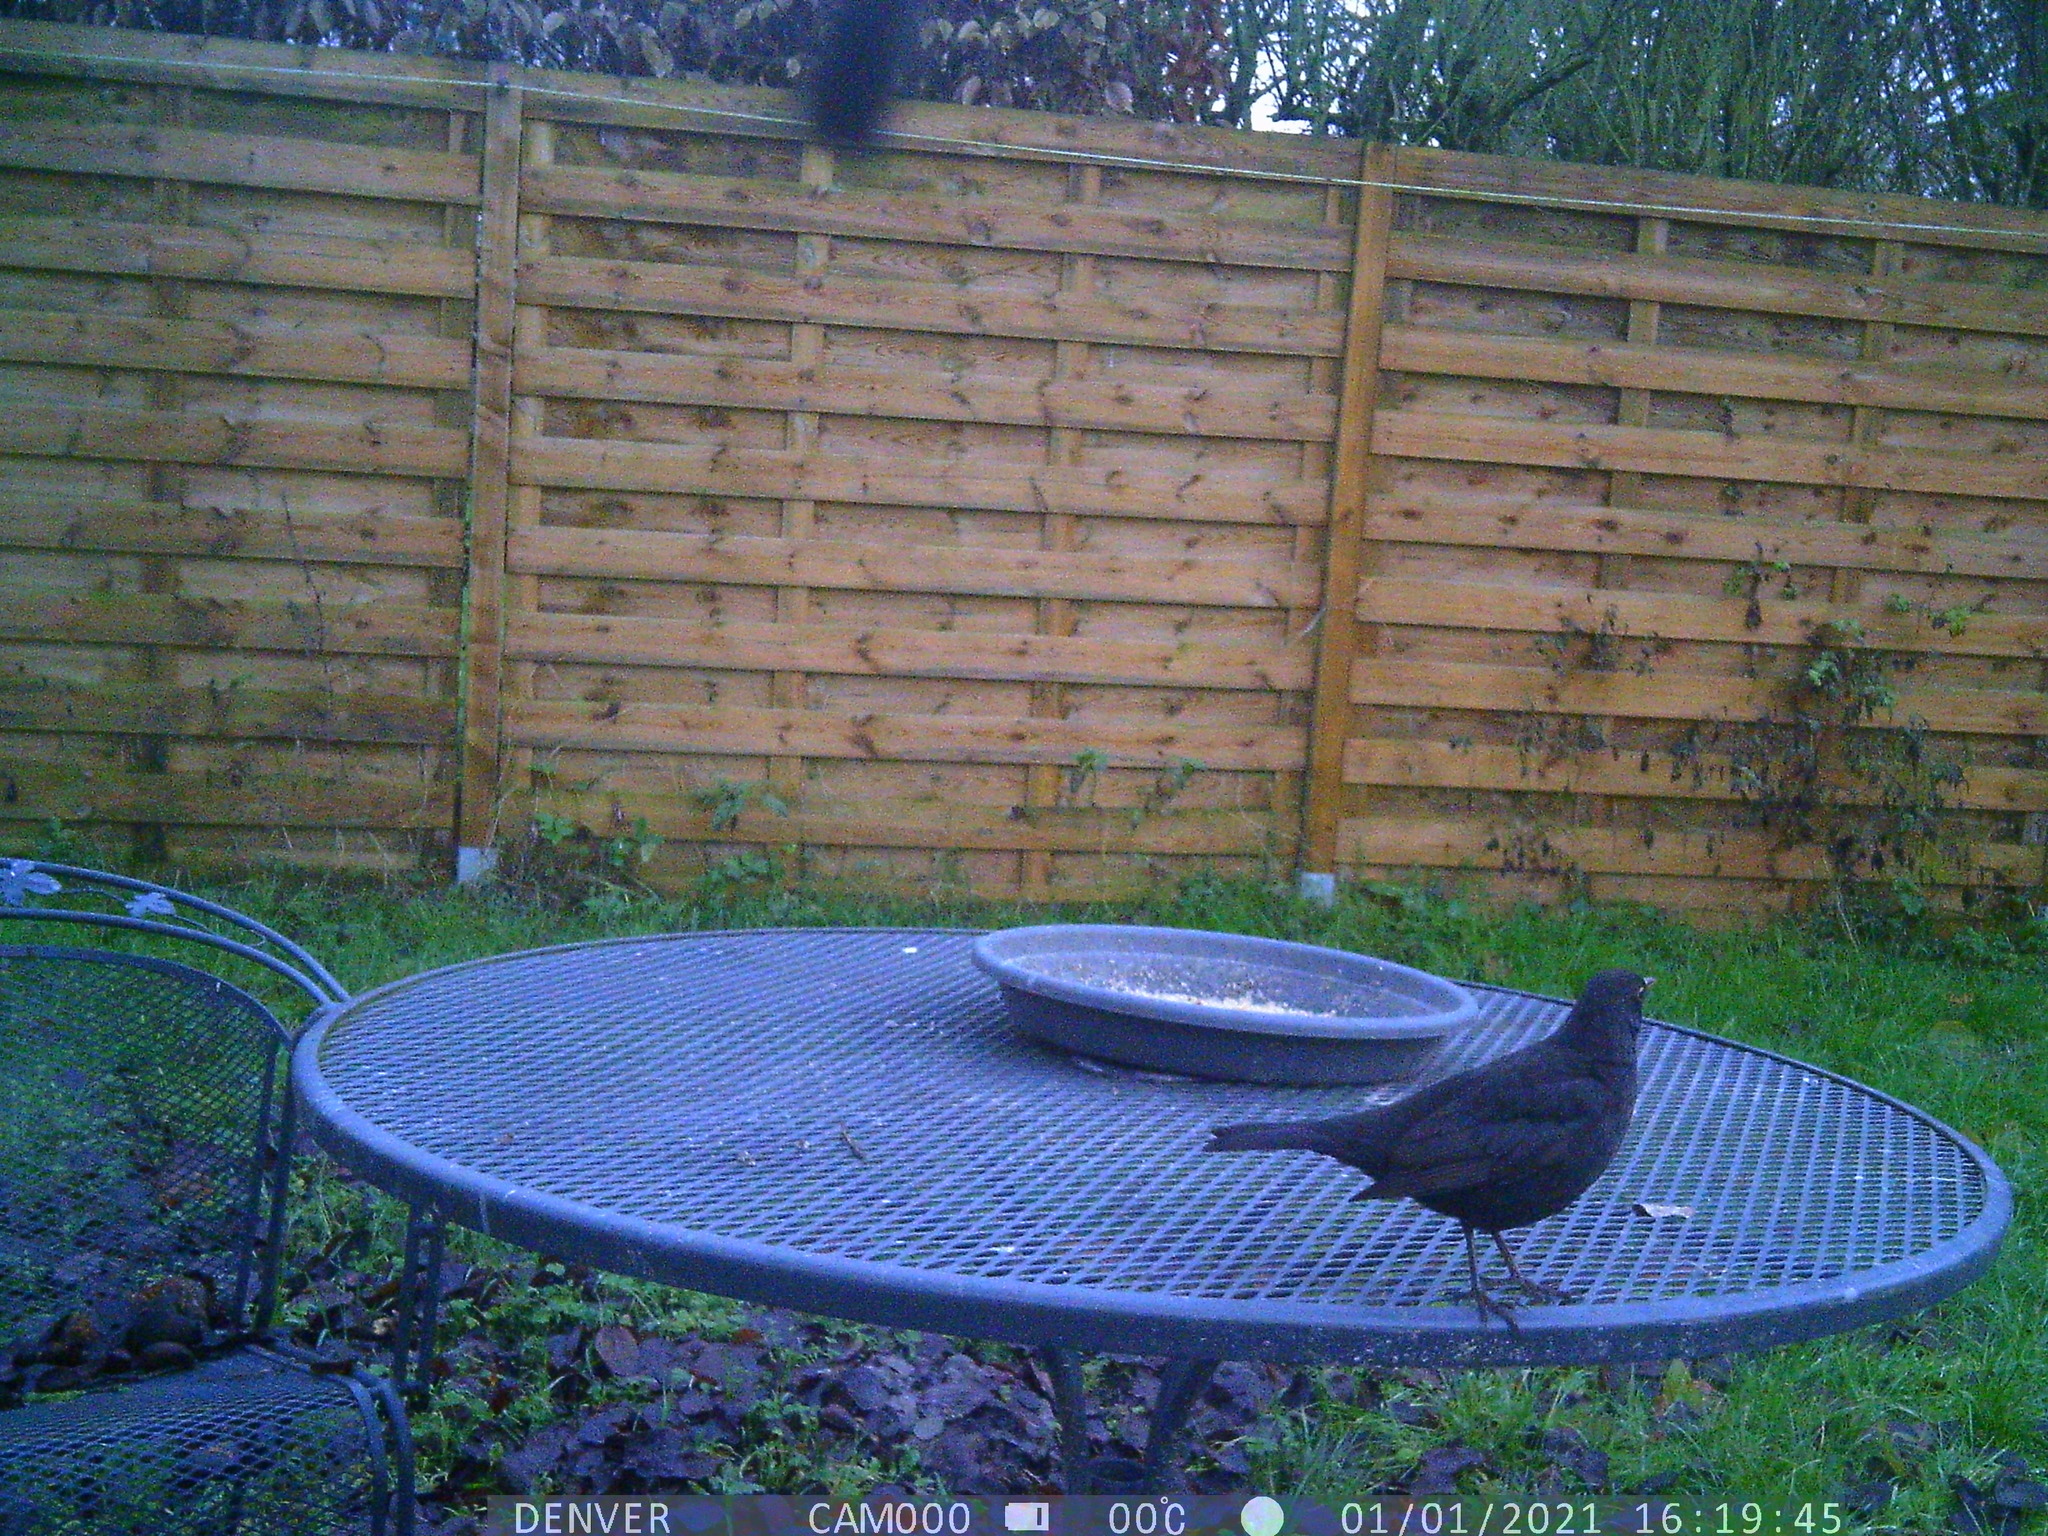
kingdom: Animalia
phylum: Chordata
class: Aves
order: Passeriformes
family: Turdidae
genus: Turdus
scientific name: Turdus merula
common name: Common blackbird
